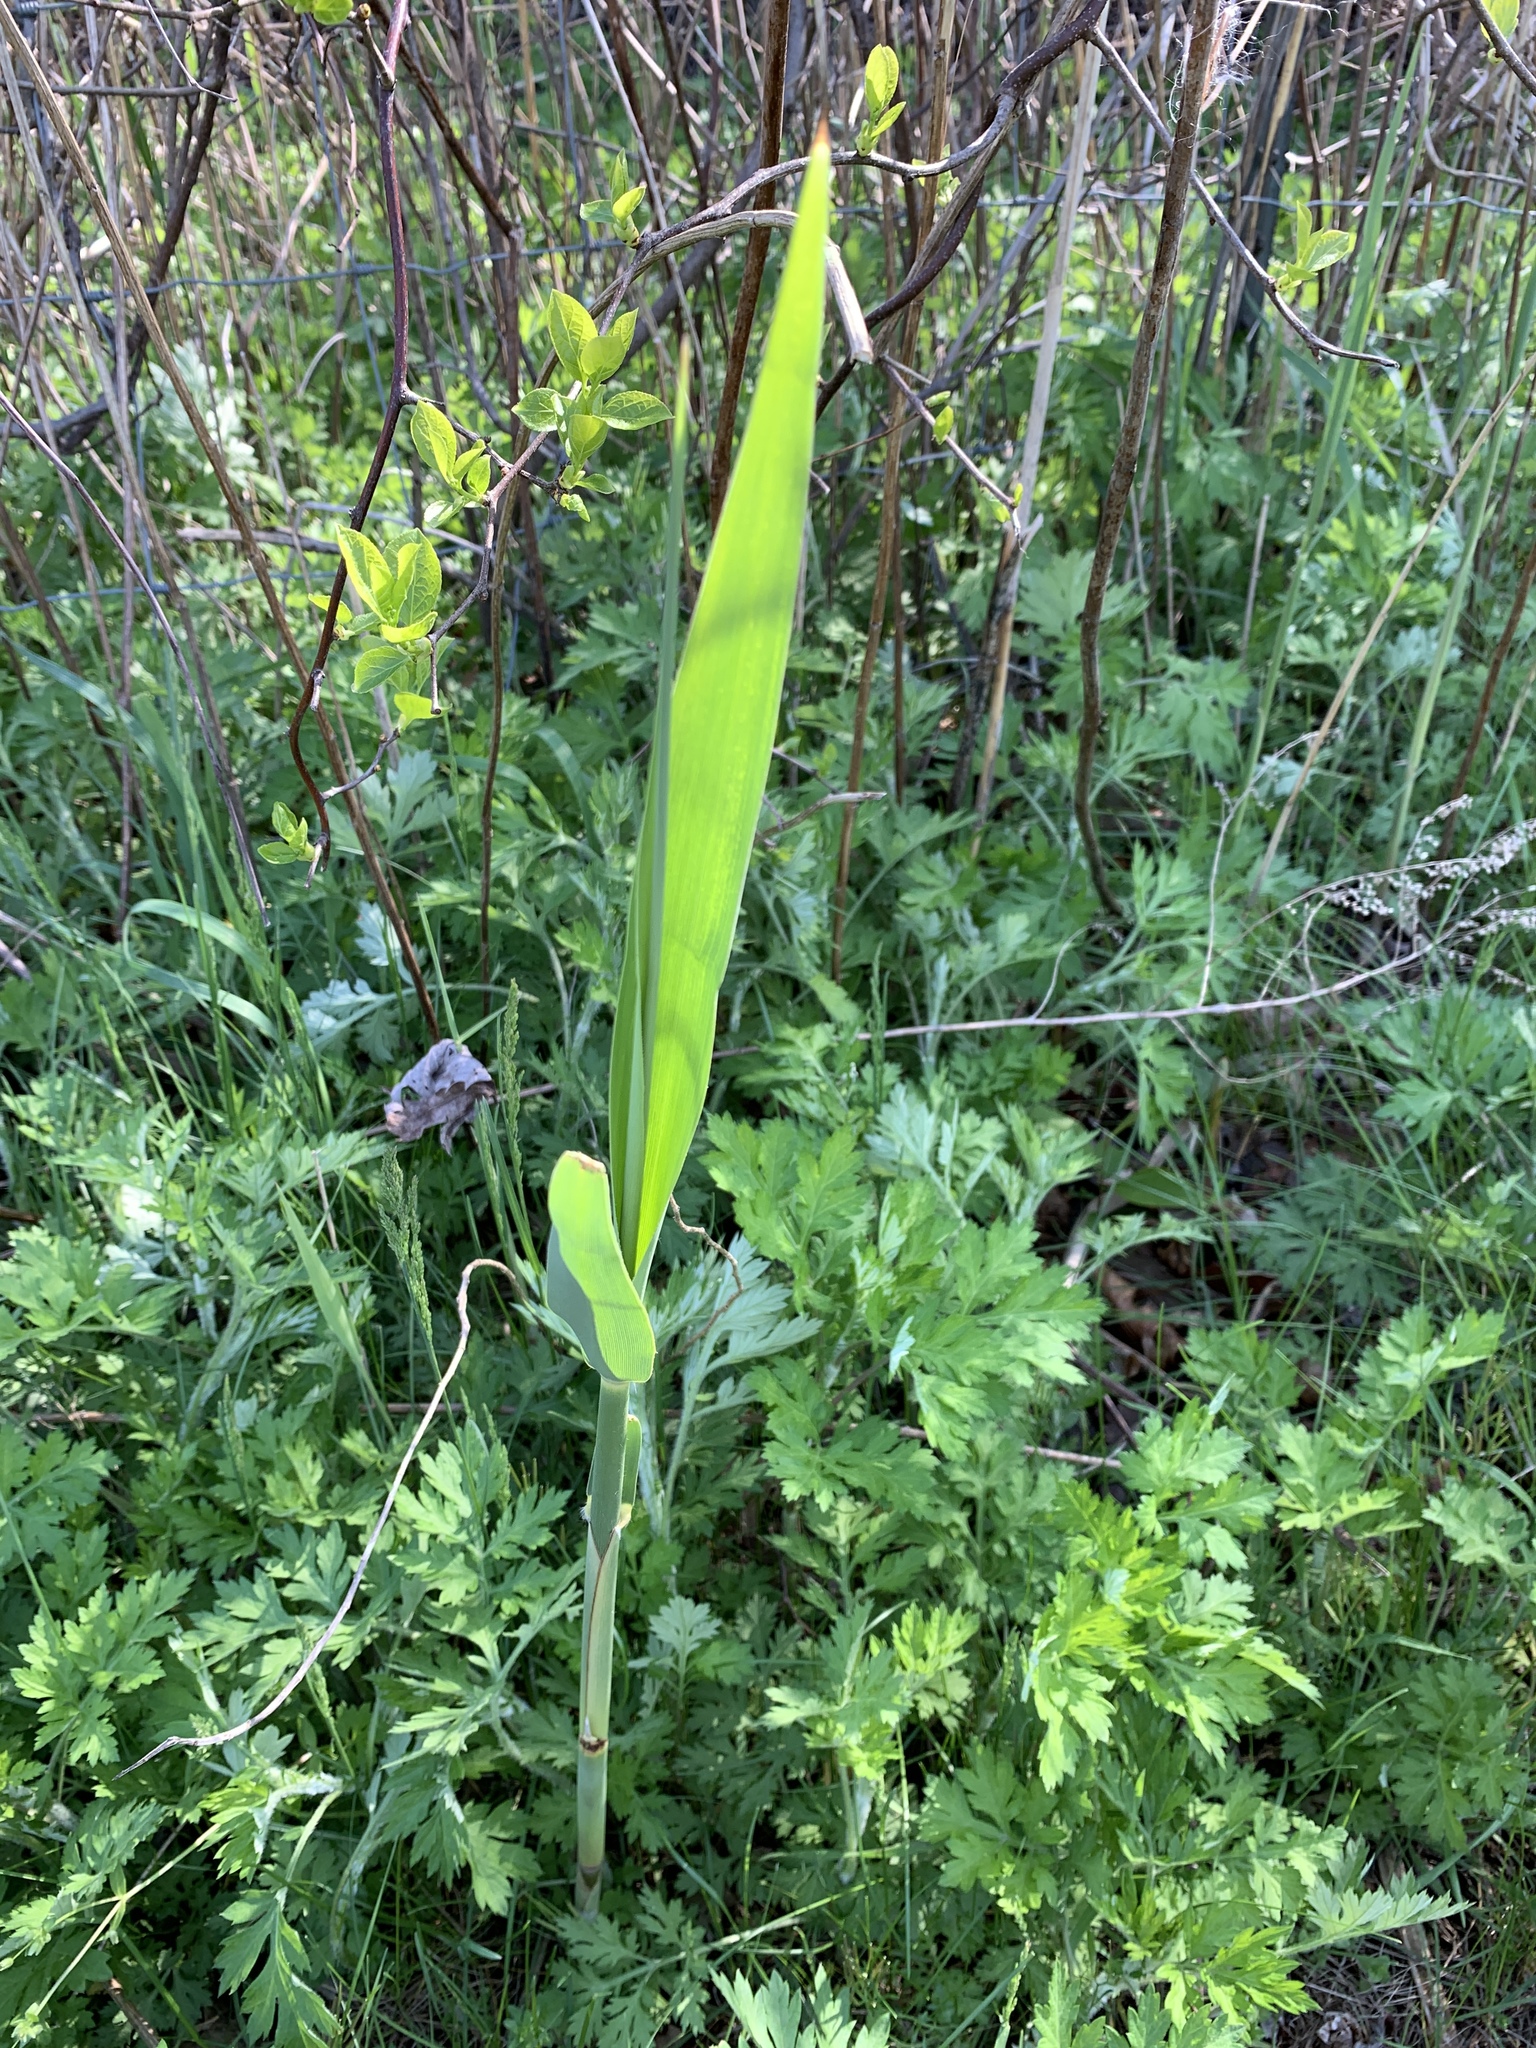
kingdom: Plantae
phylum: Tracheophyta
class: Liliopsida
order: Poales
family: Poaceae
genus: Phragmites
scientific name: Phragmites australis
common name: Common reed
